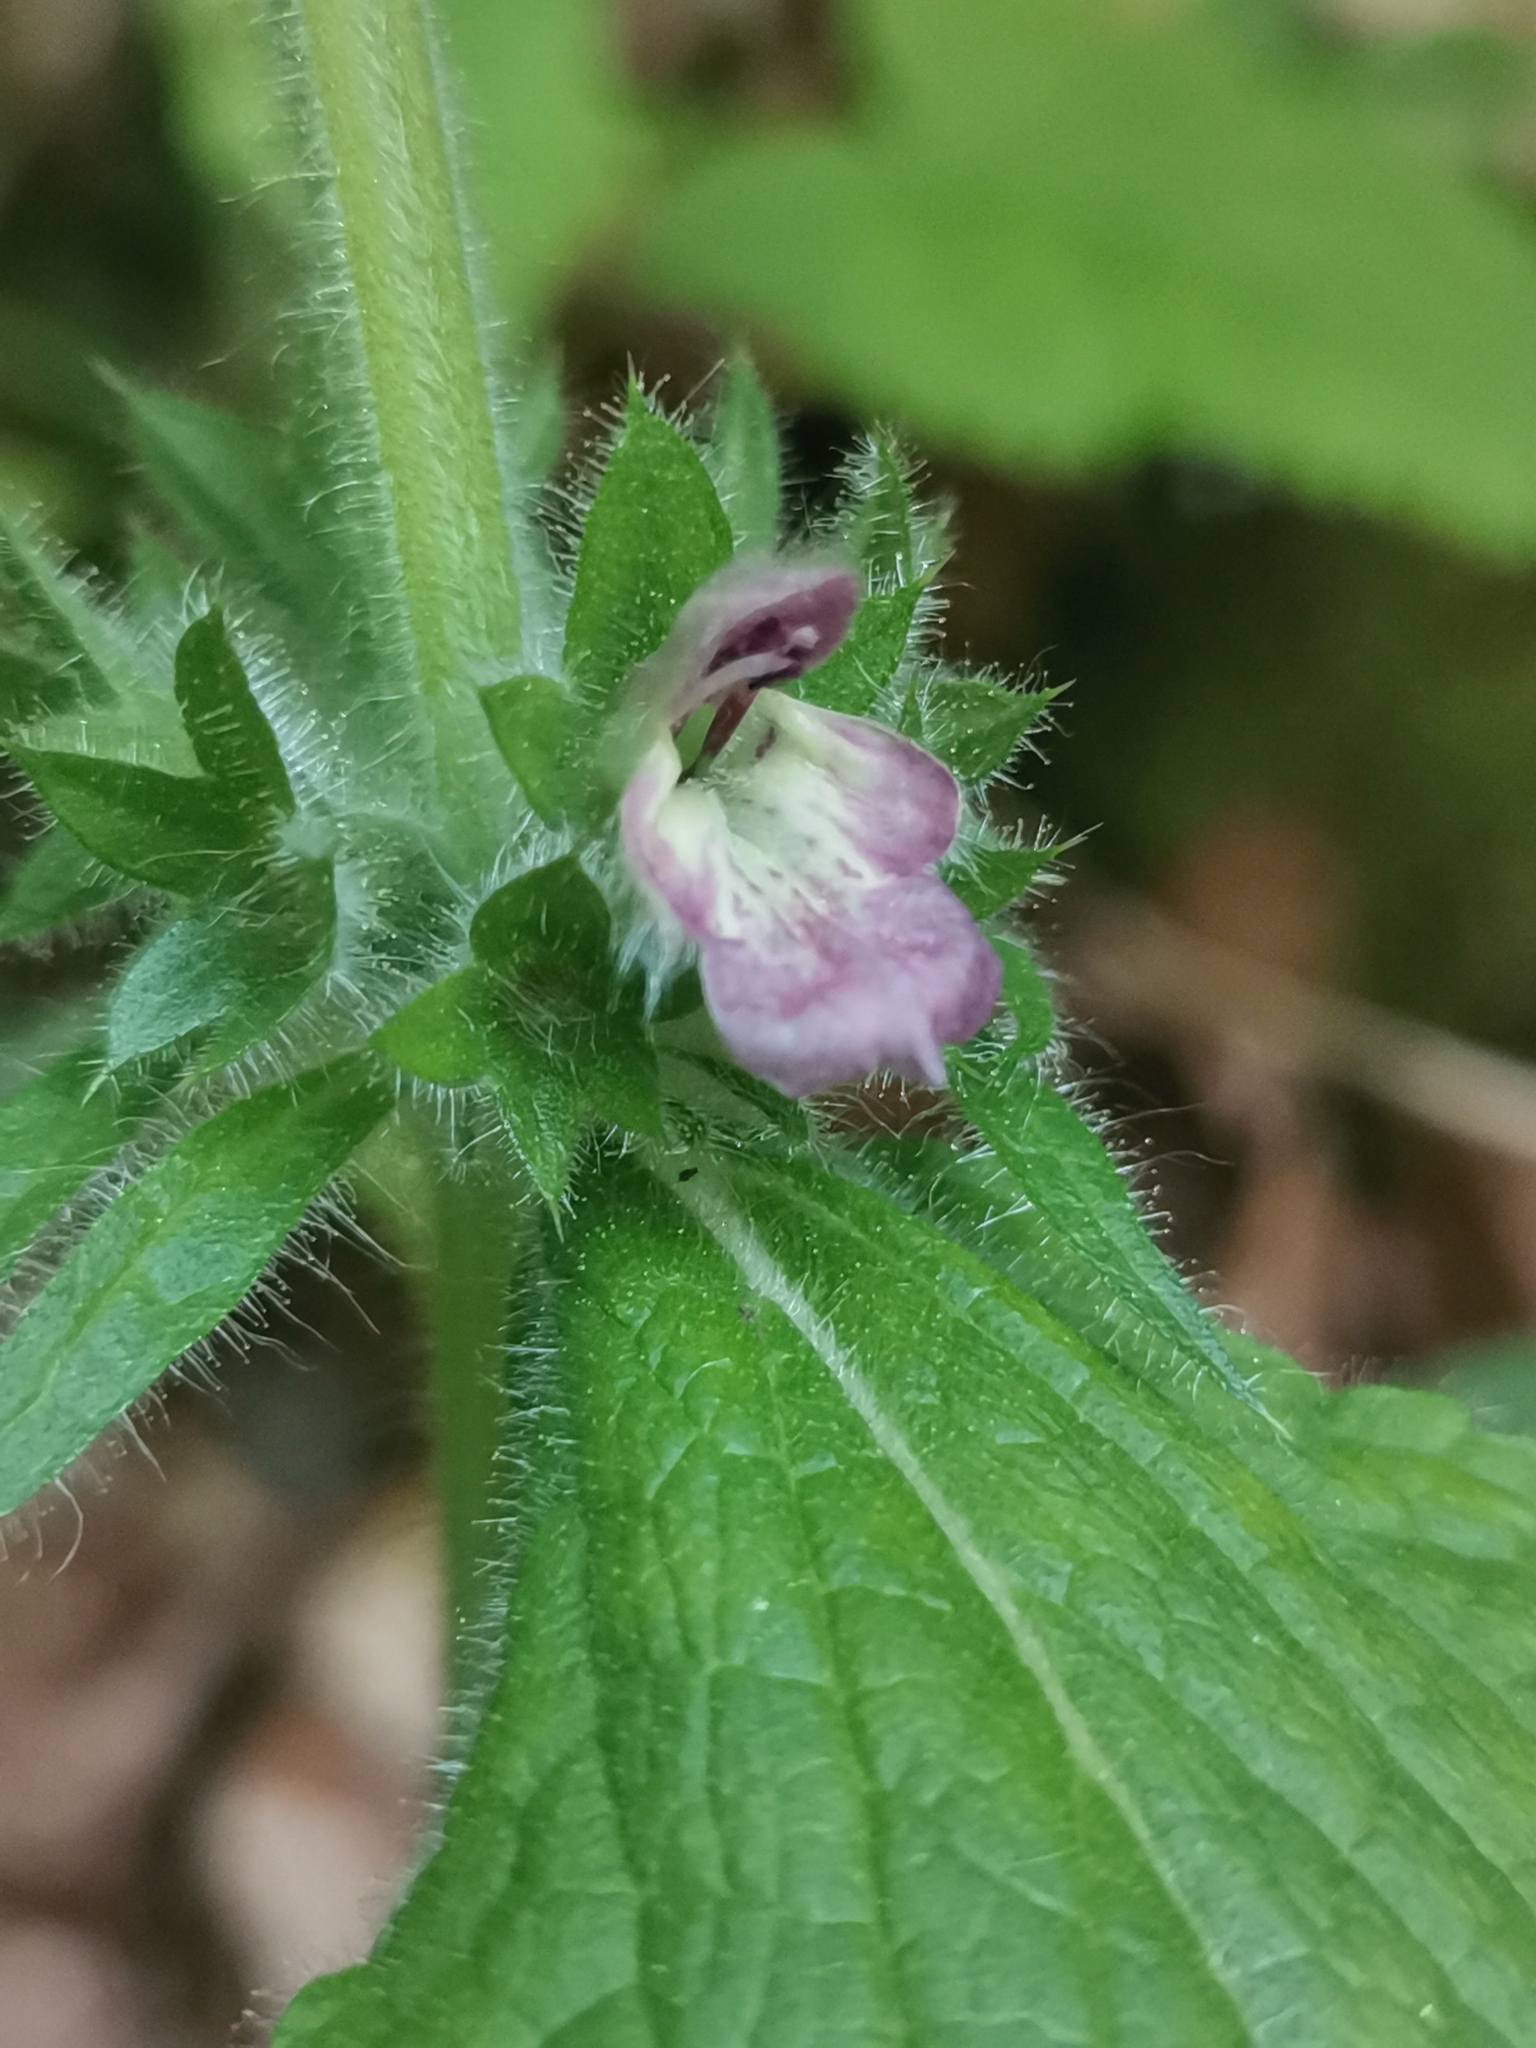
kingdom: Plantae
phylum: Tracheophyta
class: Magnoliopsida
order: Lamiales
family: Lamiaceae
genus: Stachys
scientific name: Stachys alpina
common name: Limestone woundwort
